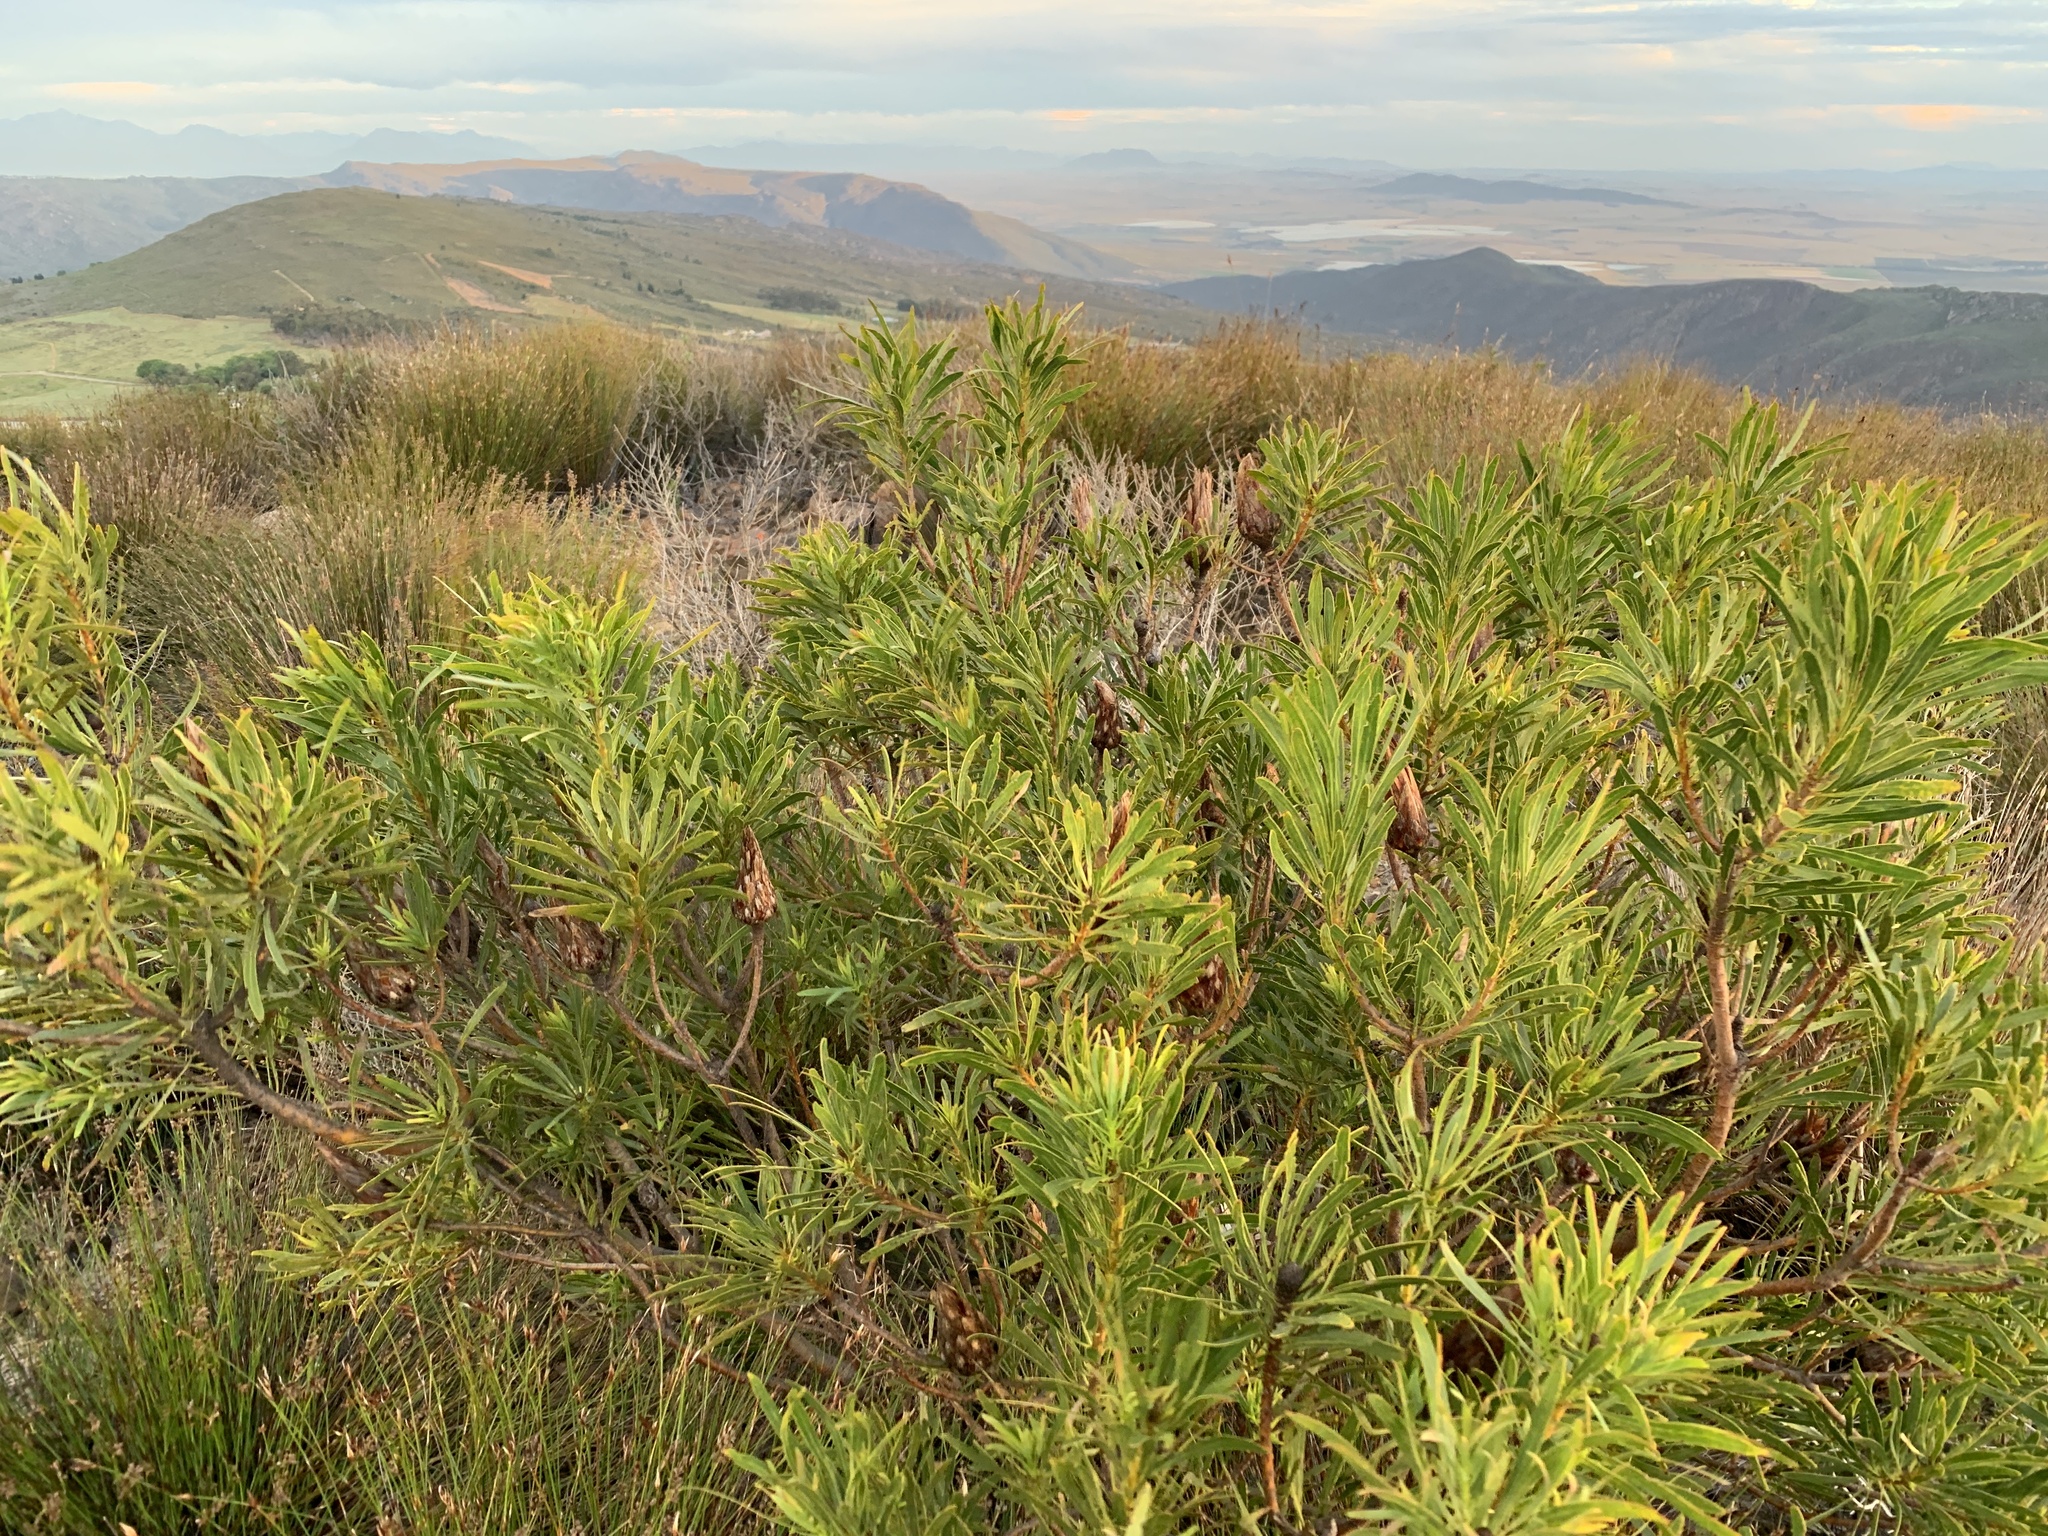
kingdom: Plantae
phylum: Tracheophyta
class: Magnoliopsida
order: Proteales
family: Proteaceae
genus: Protea
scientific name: Protea repens
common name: Sugarbush
